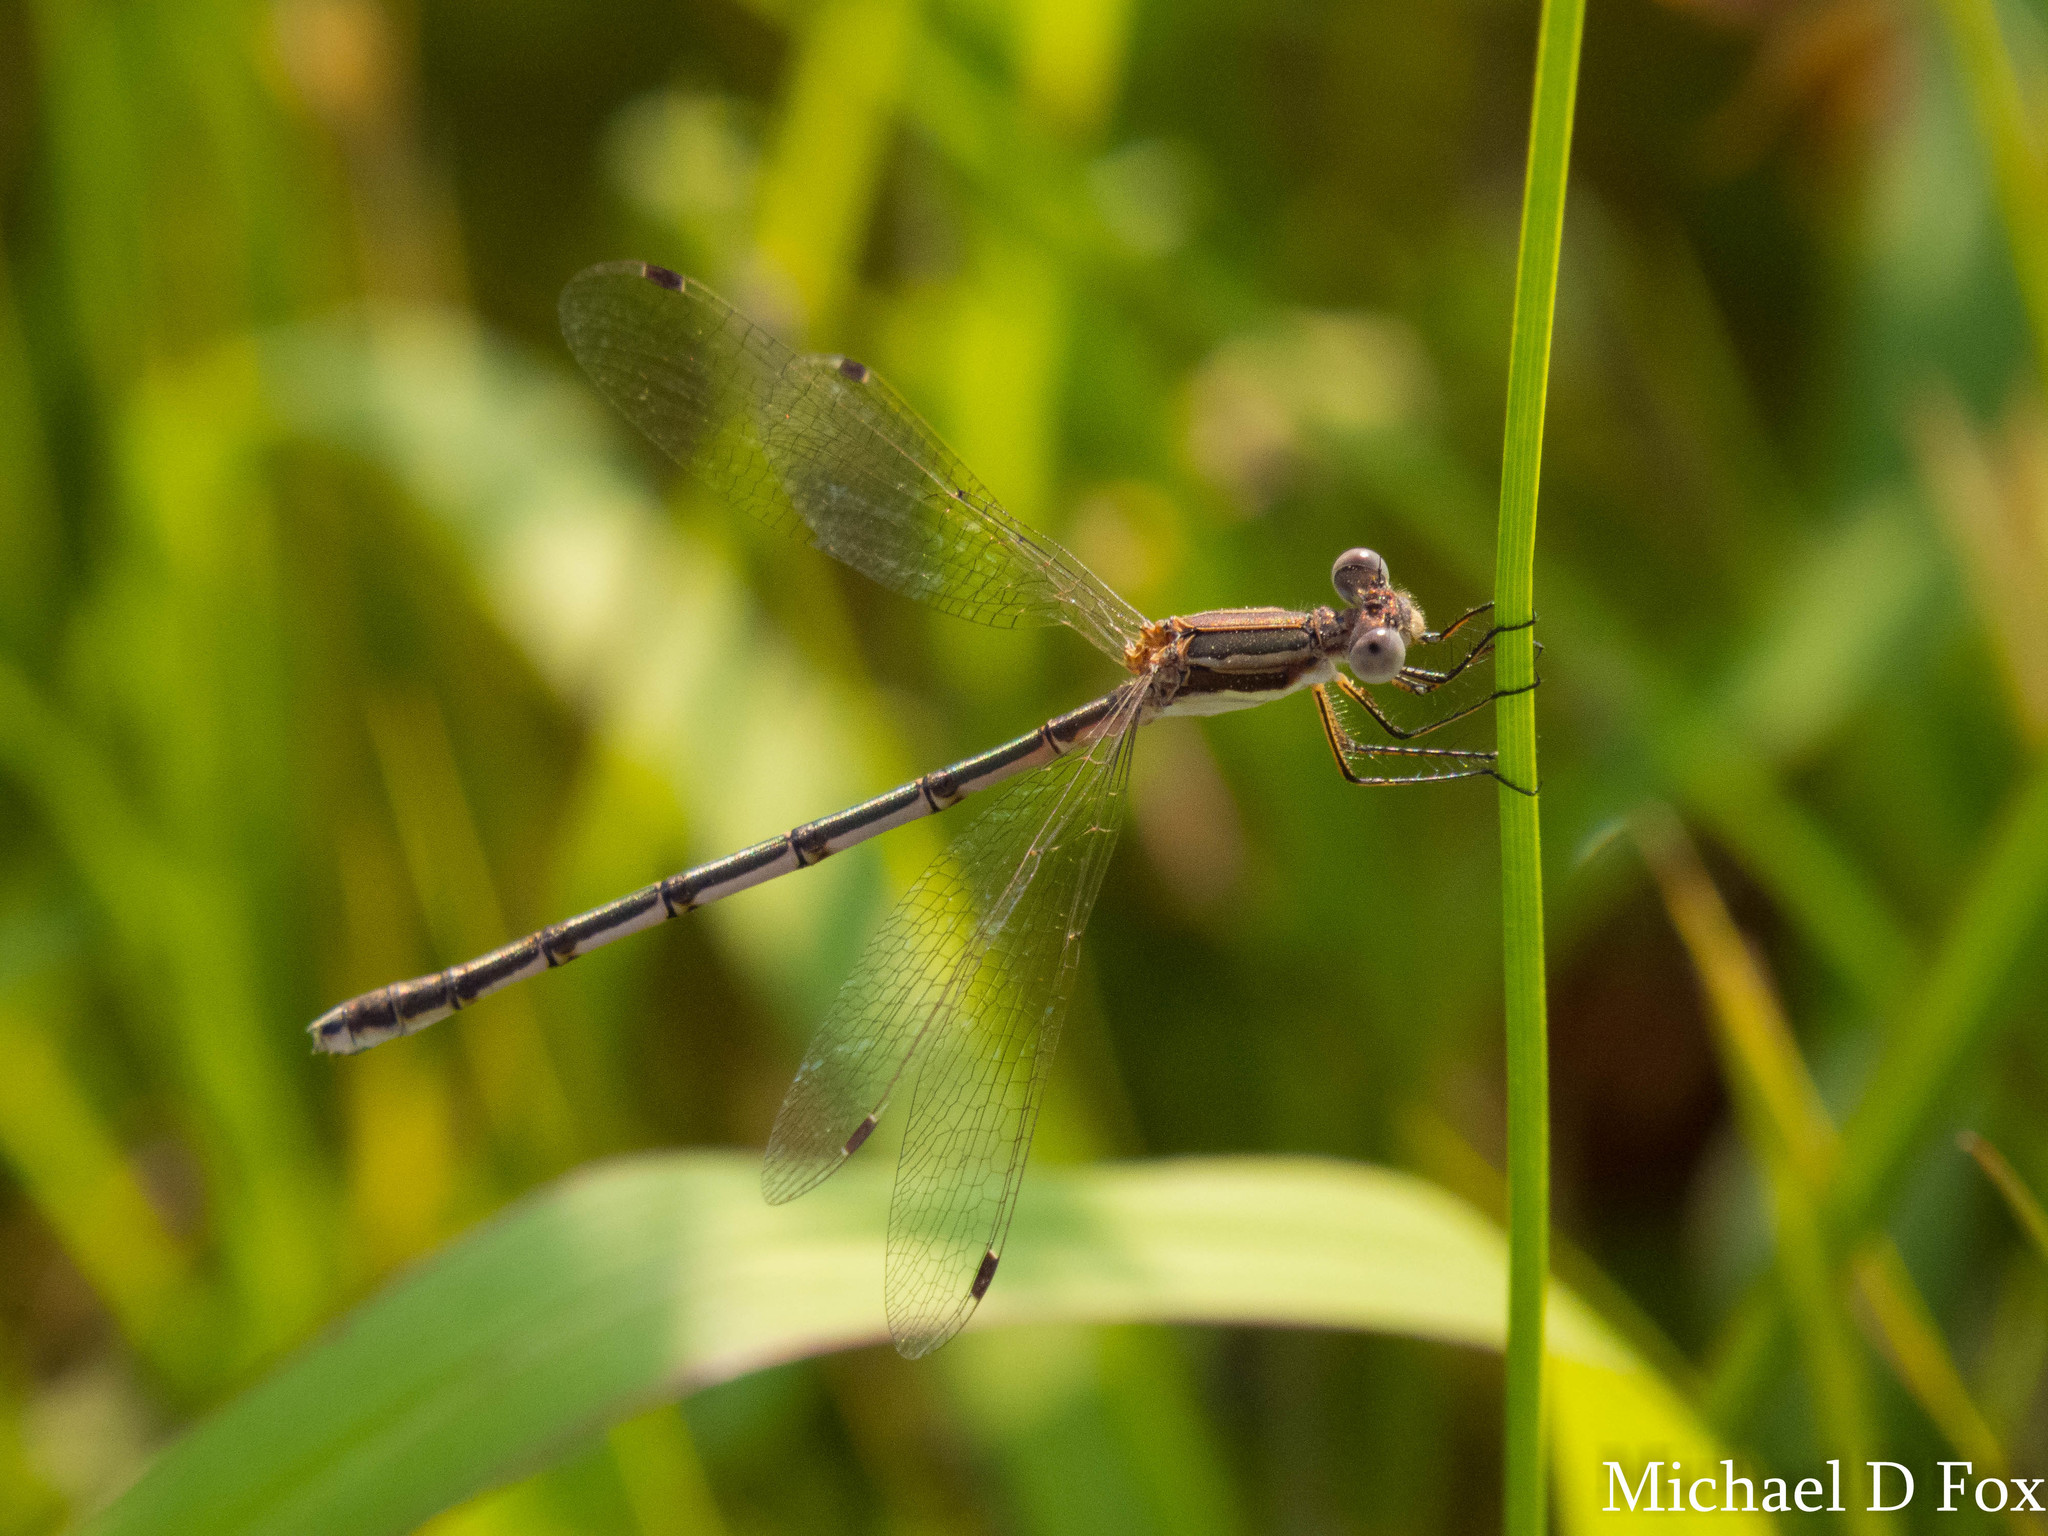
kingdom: Animalia
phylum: Arthropoda
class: Insecta
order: Odonata
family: Lestidae
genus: Lestes
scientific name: Lestes australis
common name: Southern spreadwing
